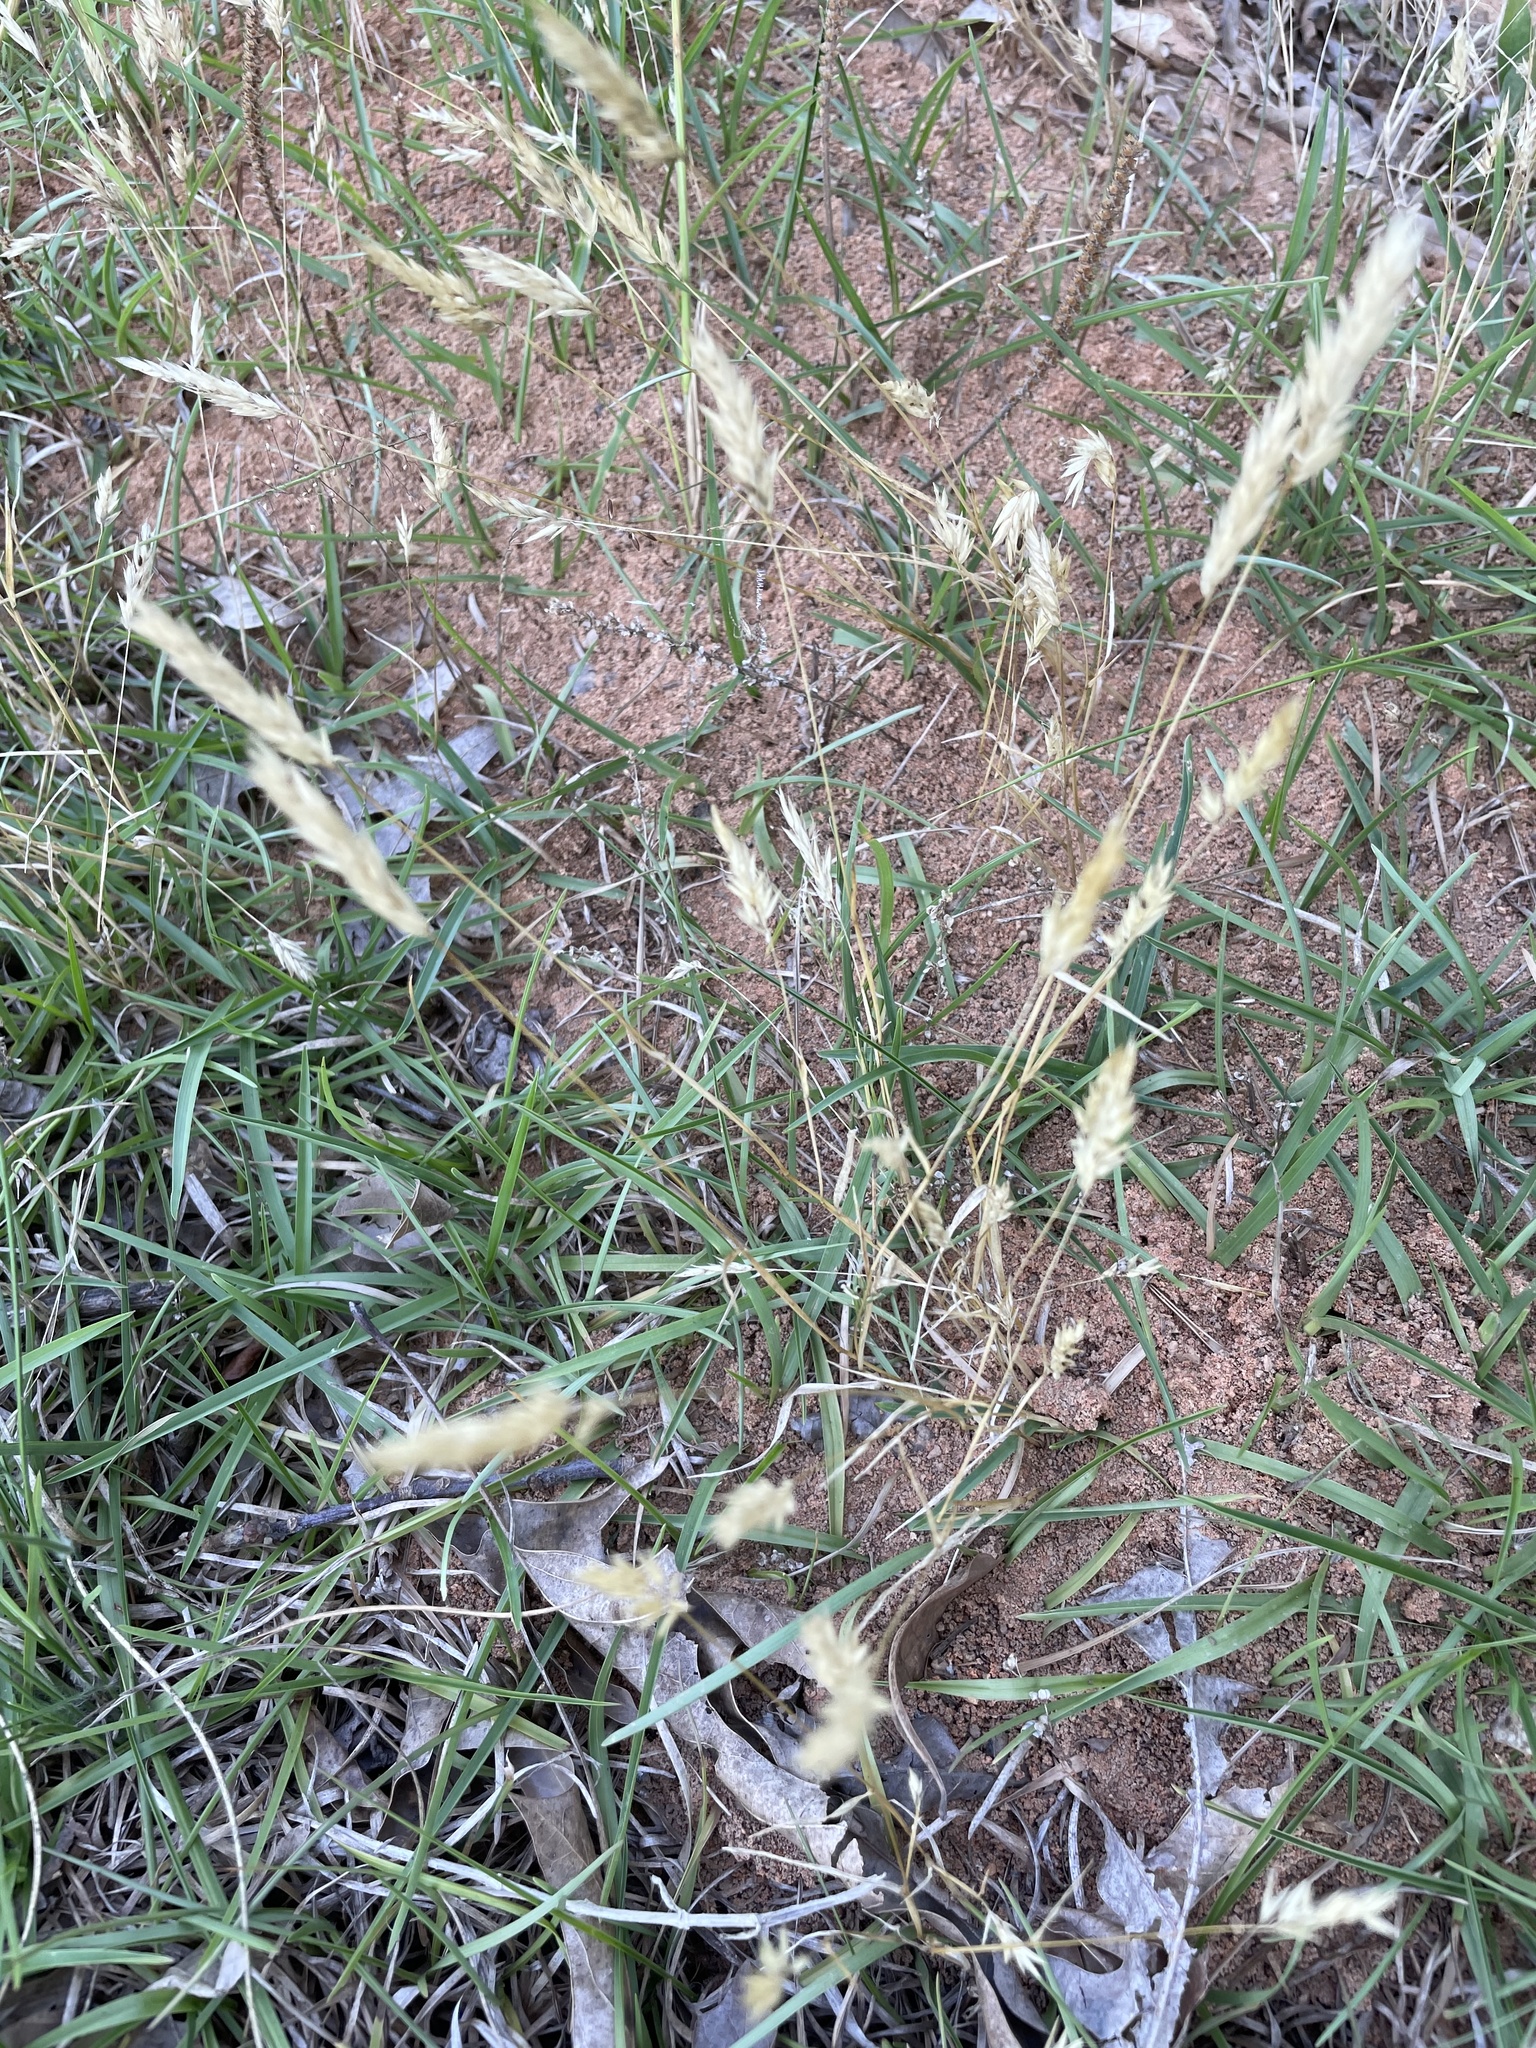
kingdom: Plantae
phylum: Tracheophyta
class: Liliopsida
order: Poales
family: Poaceae
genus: Anthoxanthum
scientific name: Anthoxanthum odoratum
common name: Sweet vernalgrass
